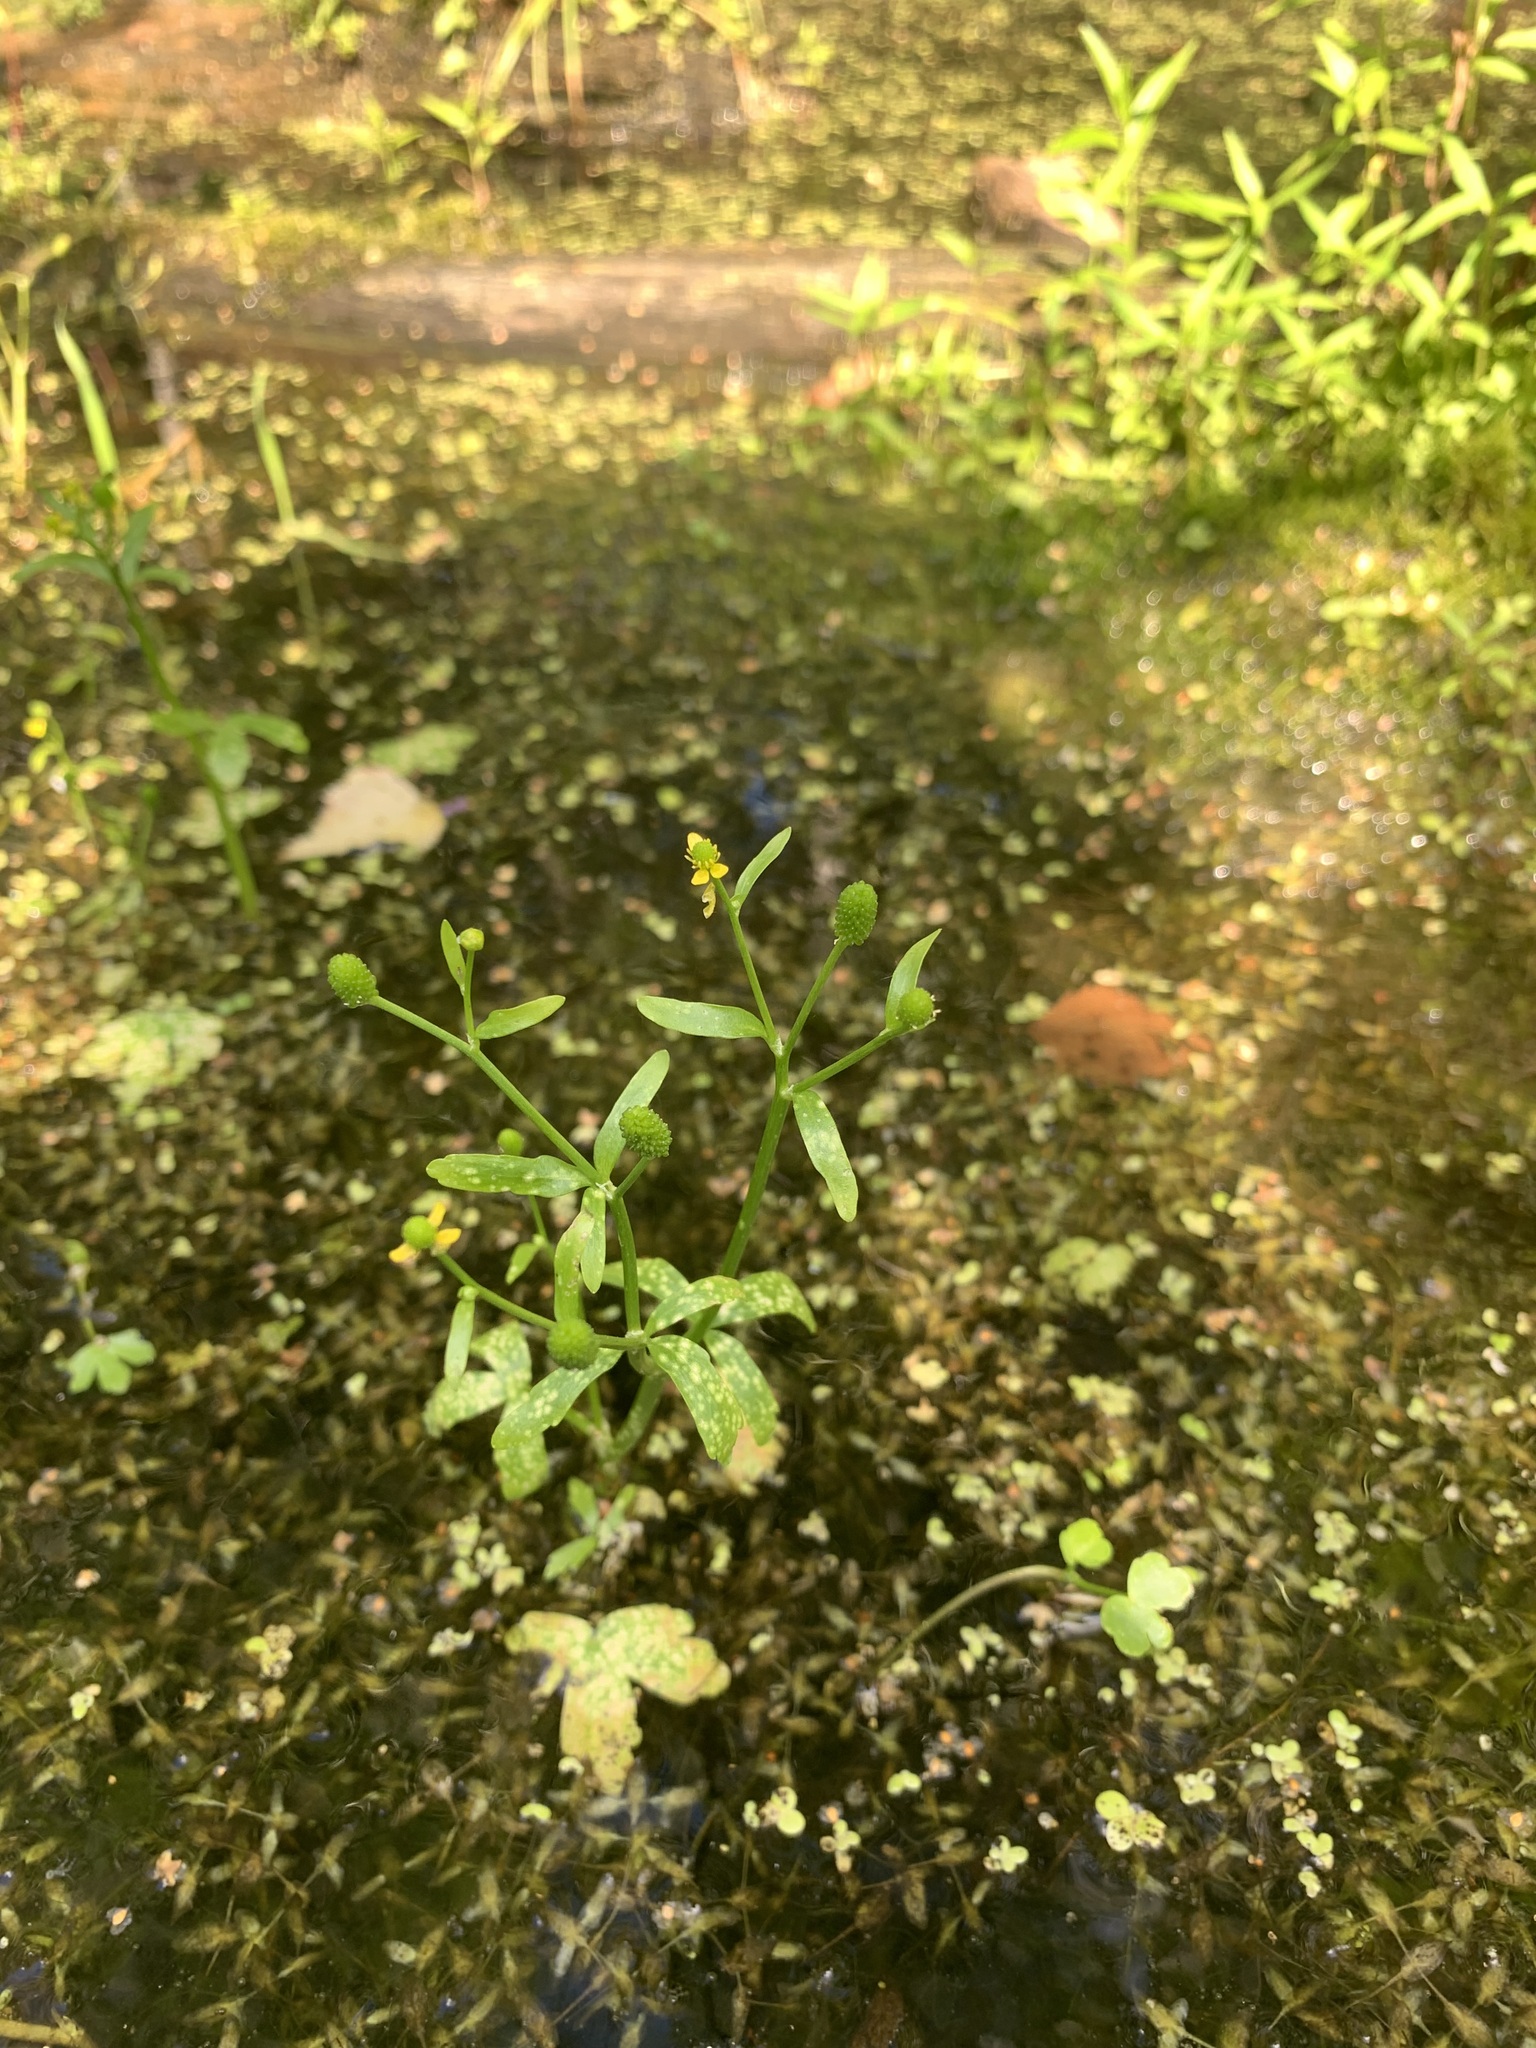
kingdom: Plantae
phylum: Tracheophyta
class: Magnoliopsida
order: Ranunculales
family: Ranunculaceae
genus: Ranunculus
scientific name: Ranunculus sceleratus
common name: Celery-leaved buttercup
